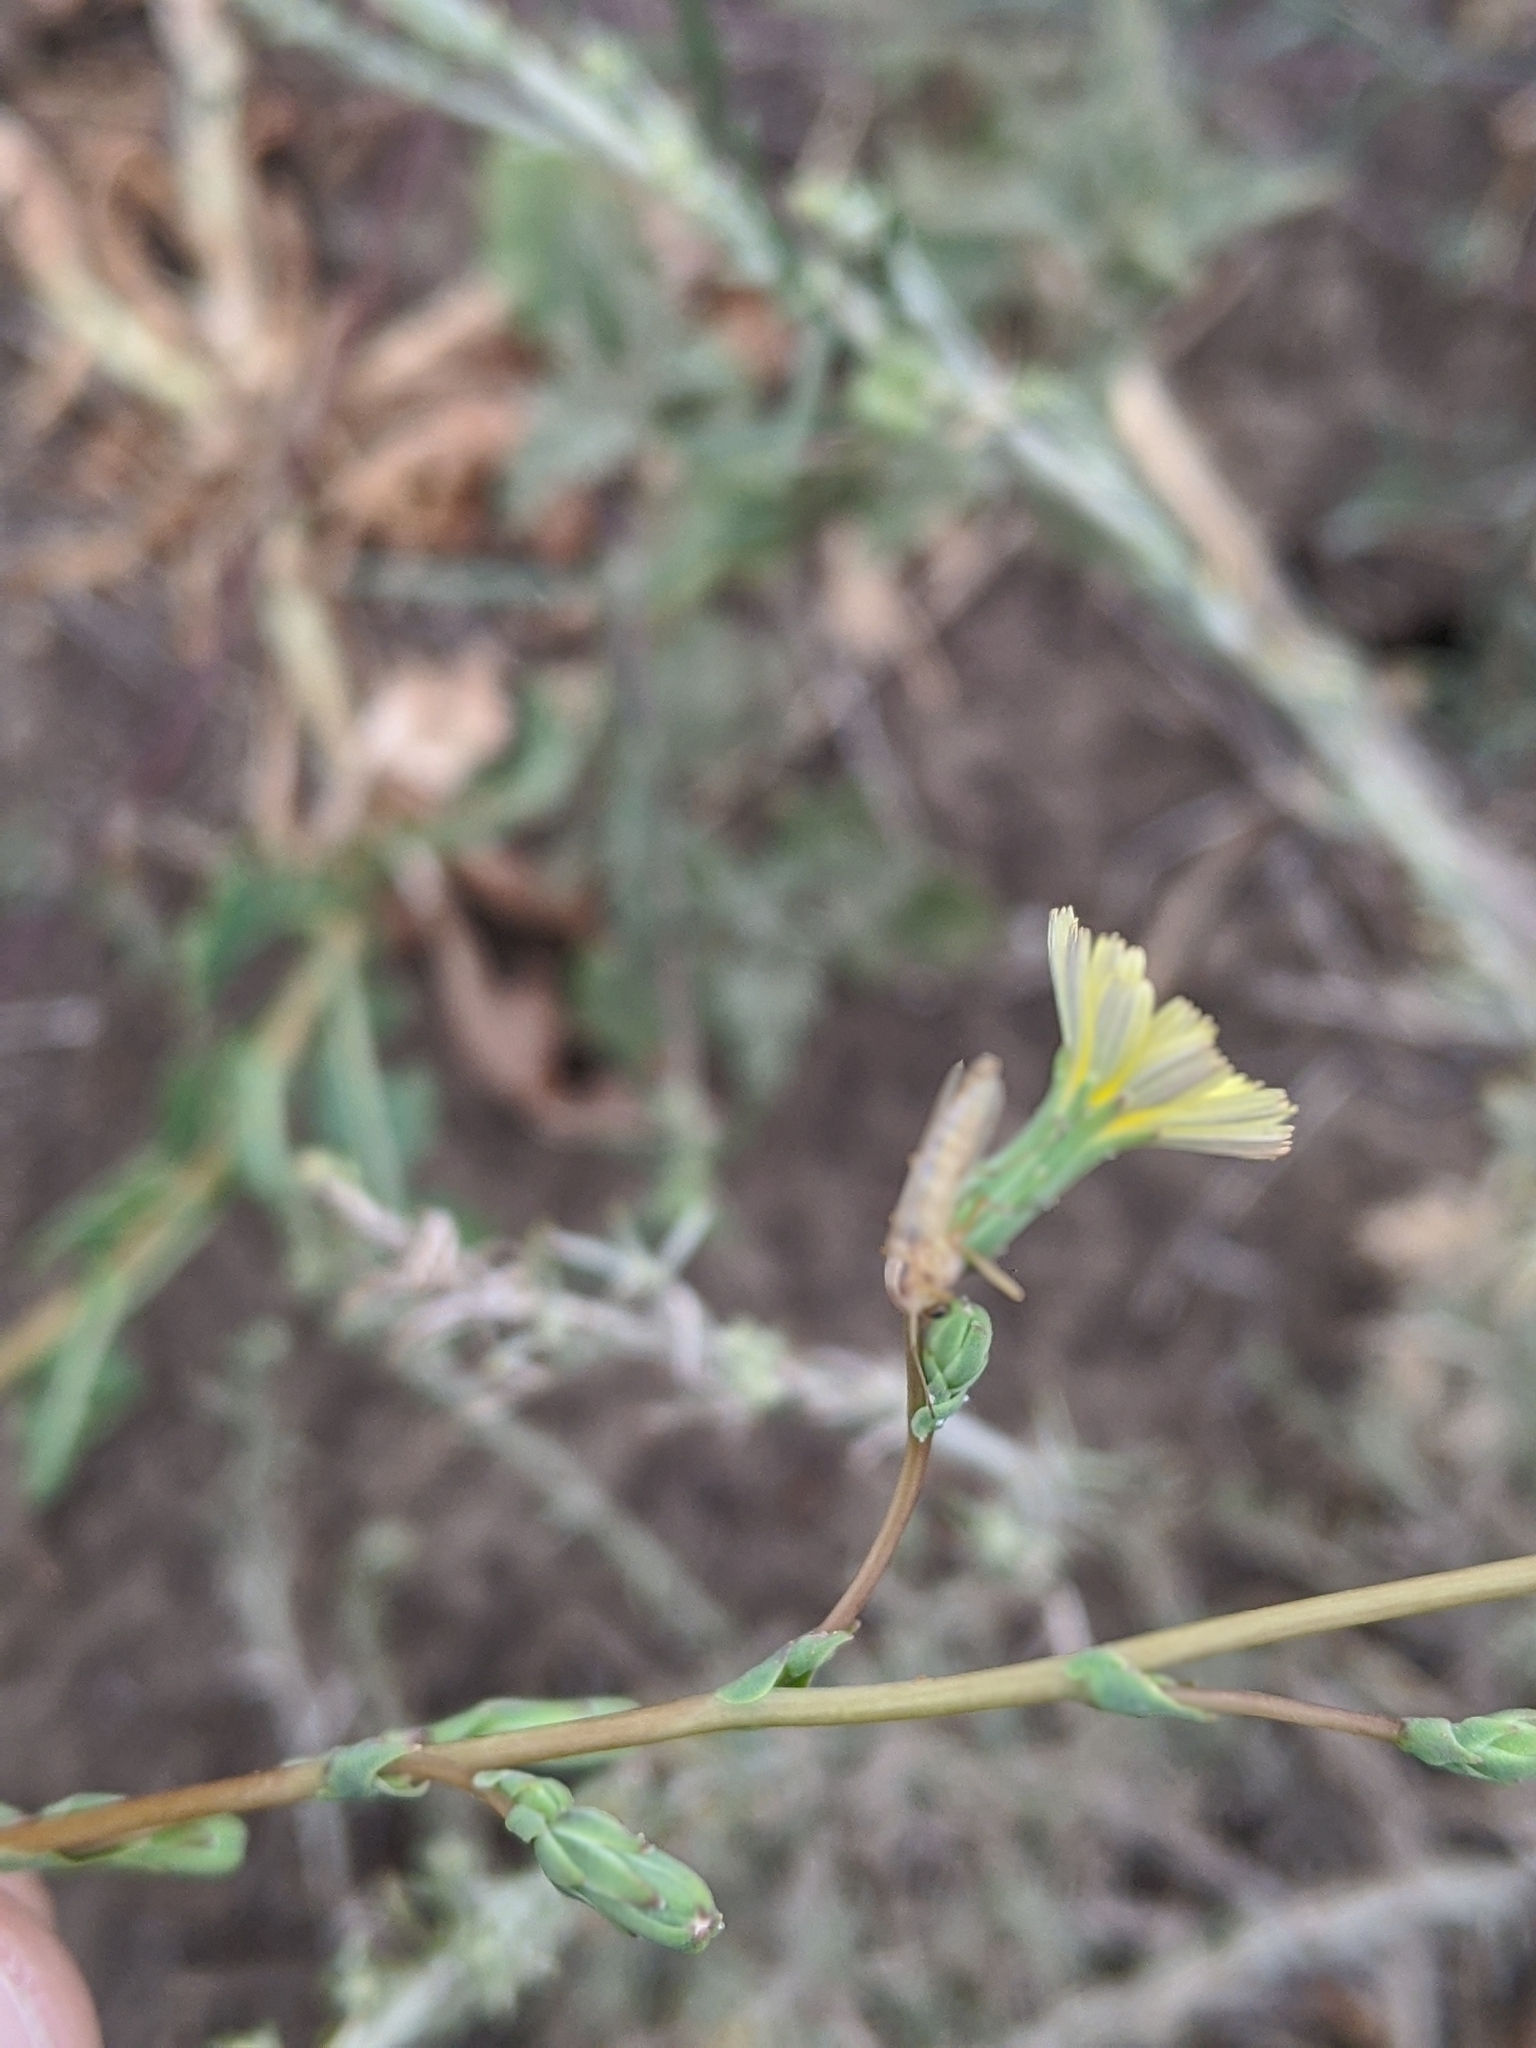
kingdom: Plantae
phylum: Tracheophyta
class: Magnoliopsida
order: Asterales
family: Asteraceae
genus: Lactuca
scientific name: Lactuca serriola
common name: Prickly lettuce
